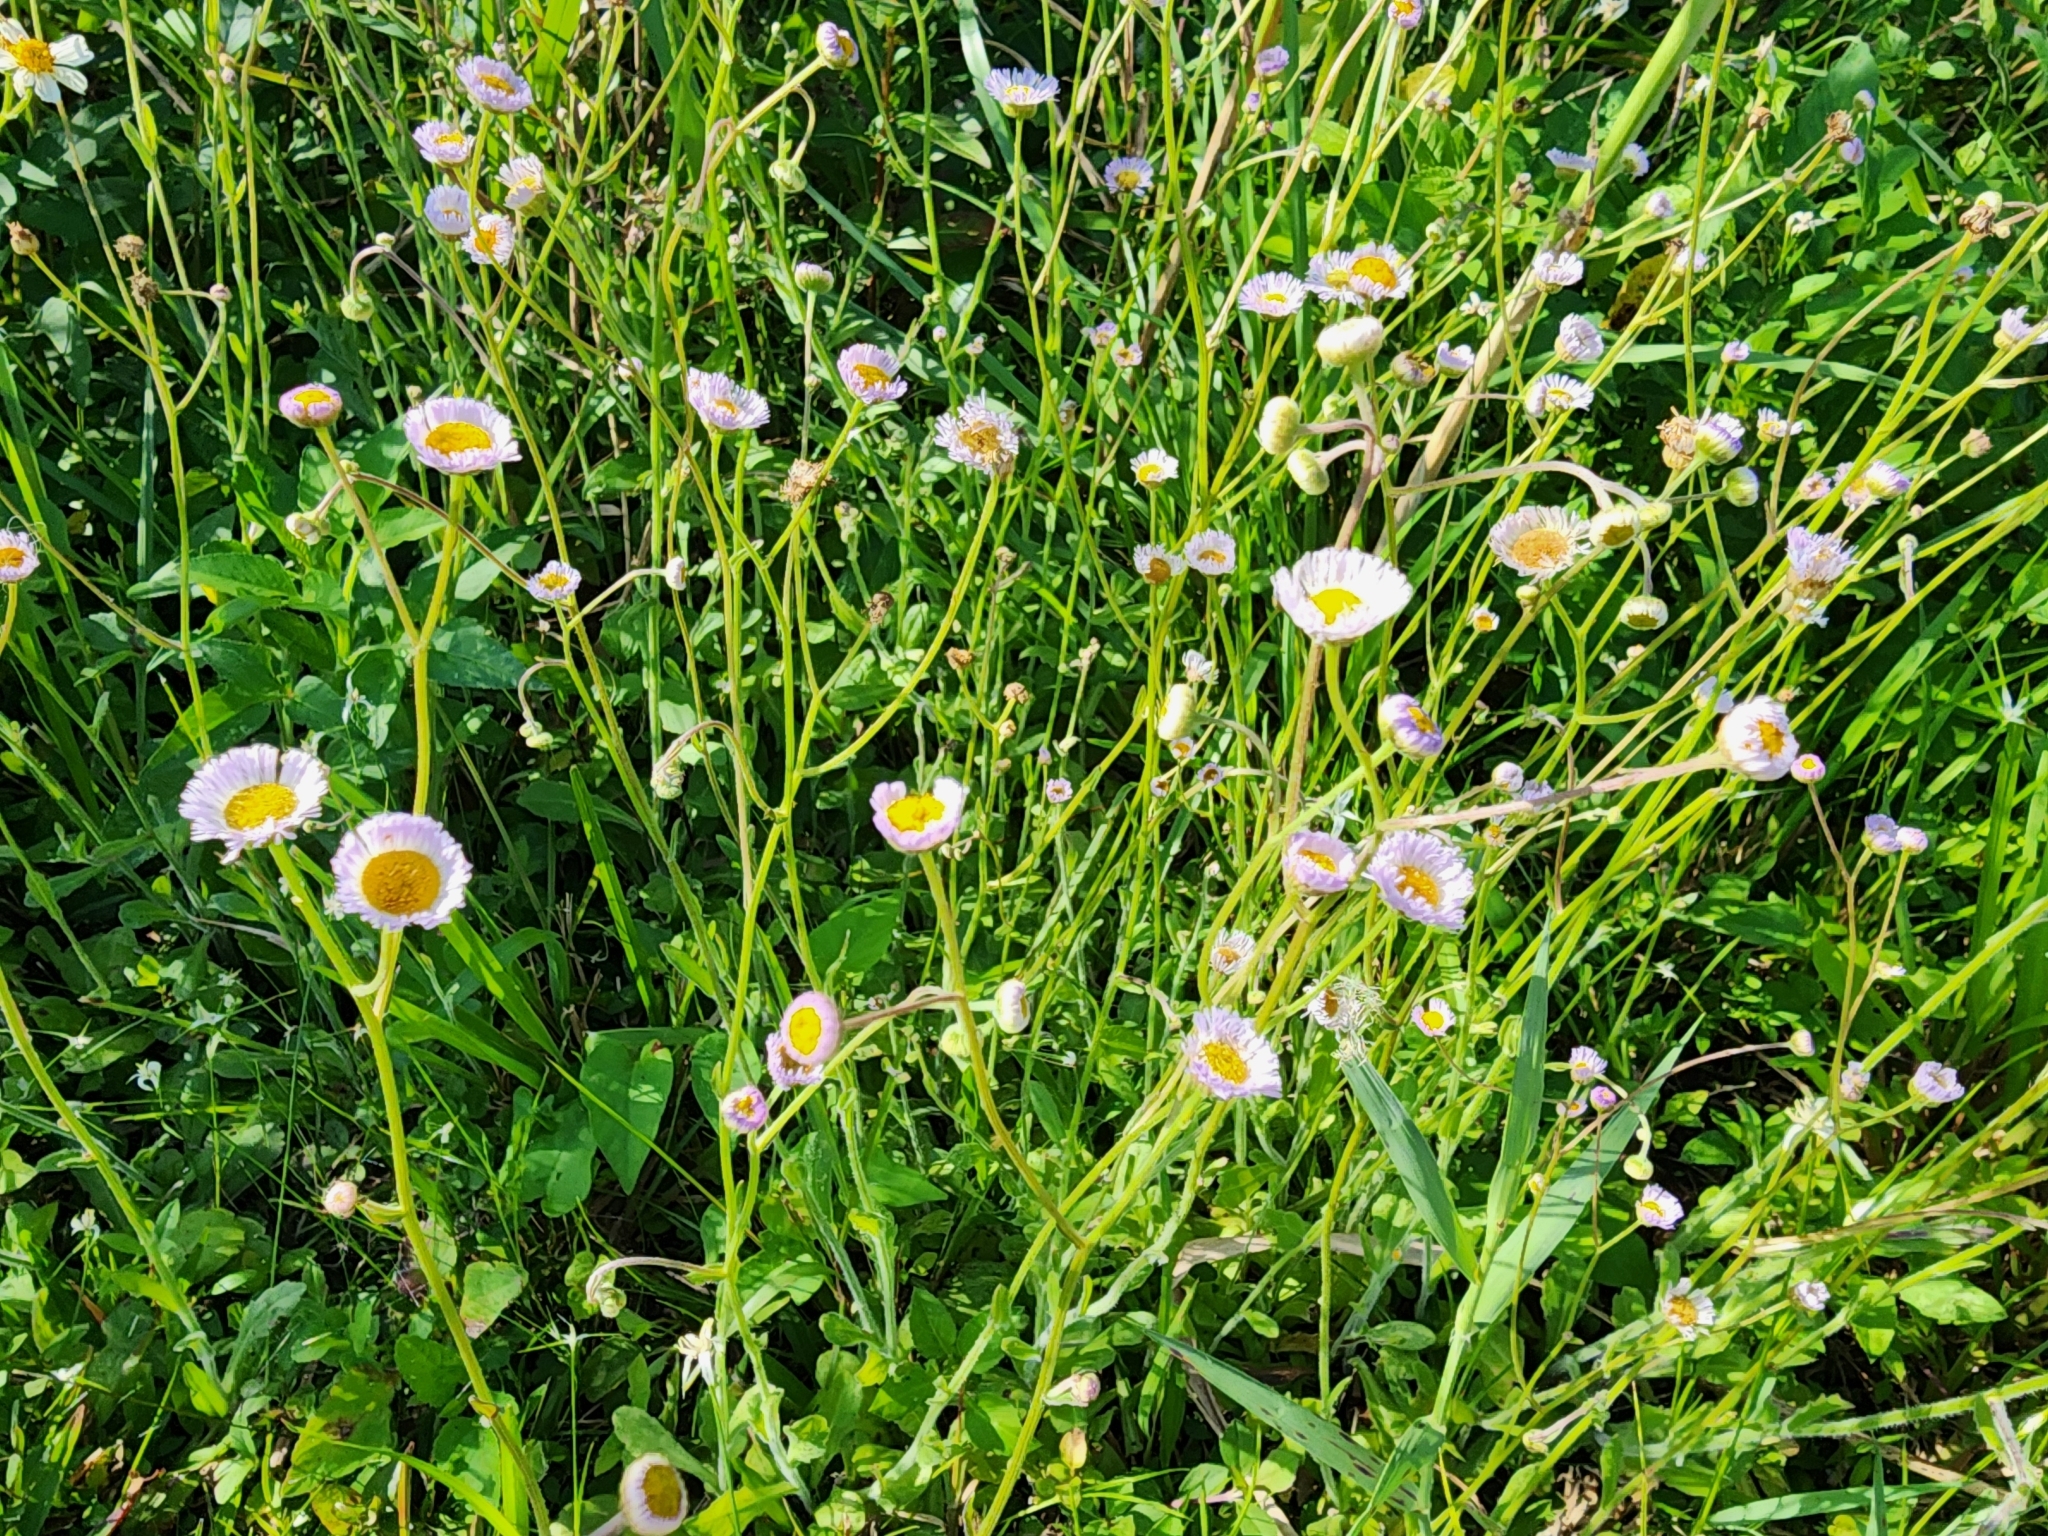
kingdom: Plantae
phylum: Tracheophyta
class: Magnoliopsida
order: Asterales
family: Asteraceae
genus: Erigeron
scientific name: Erigeron quercifolius
